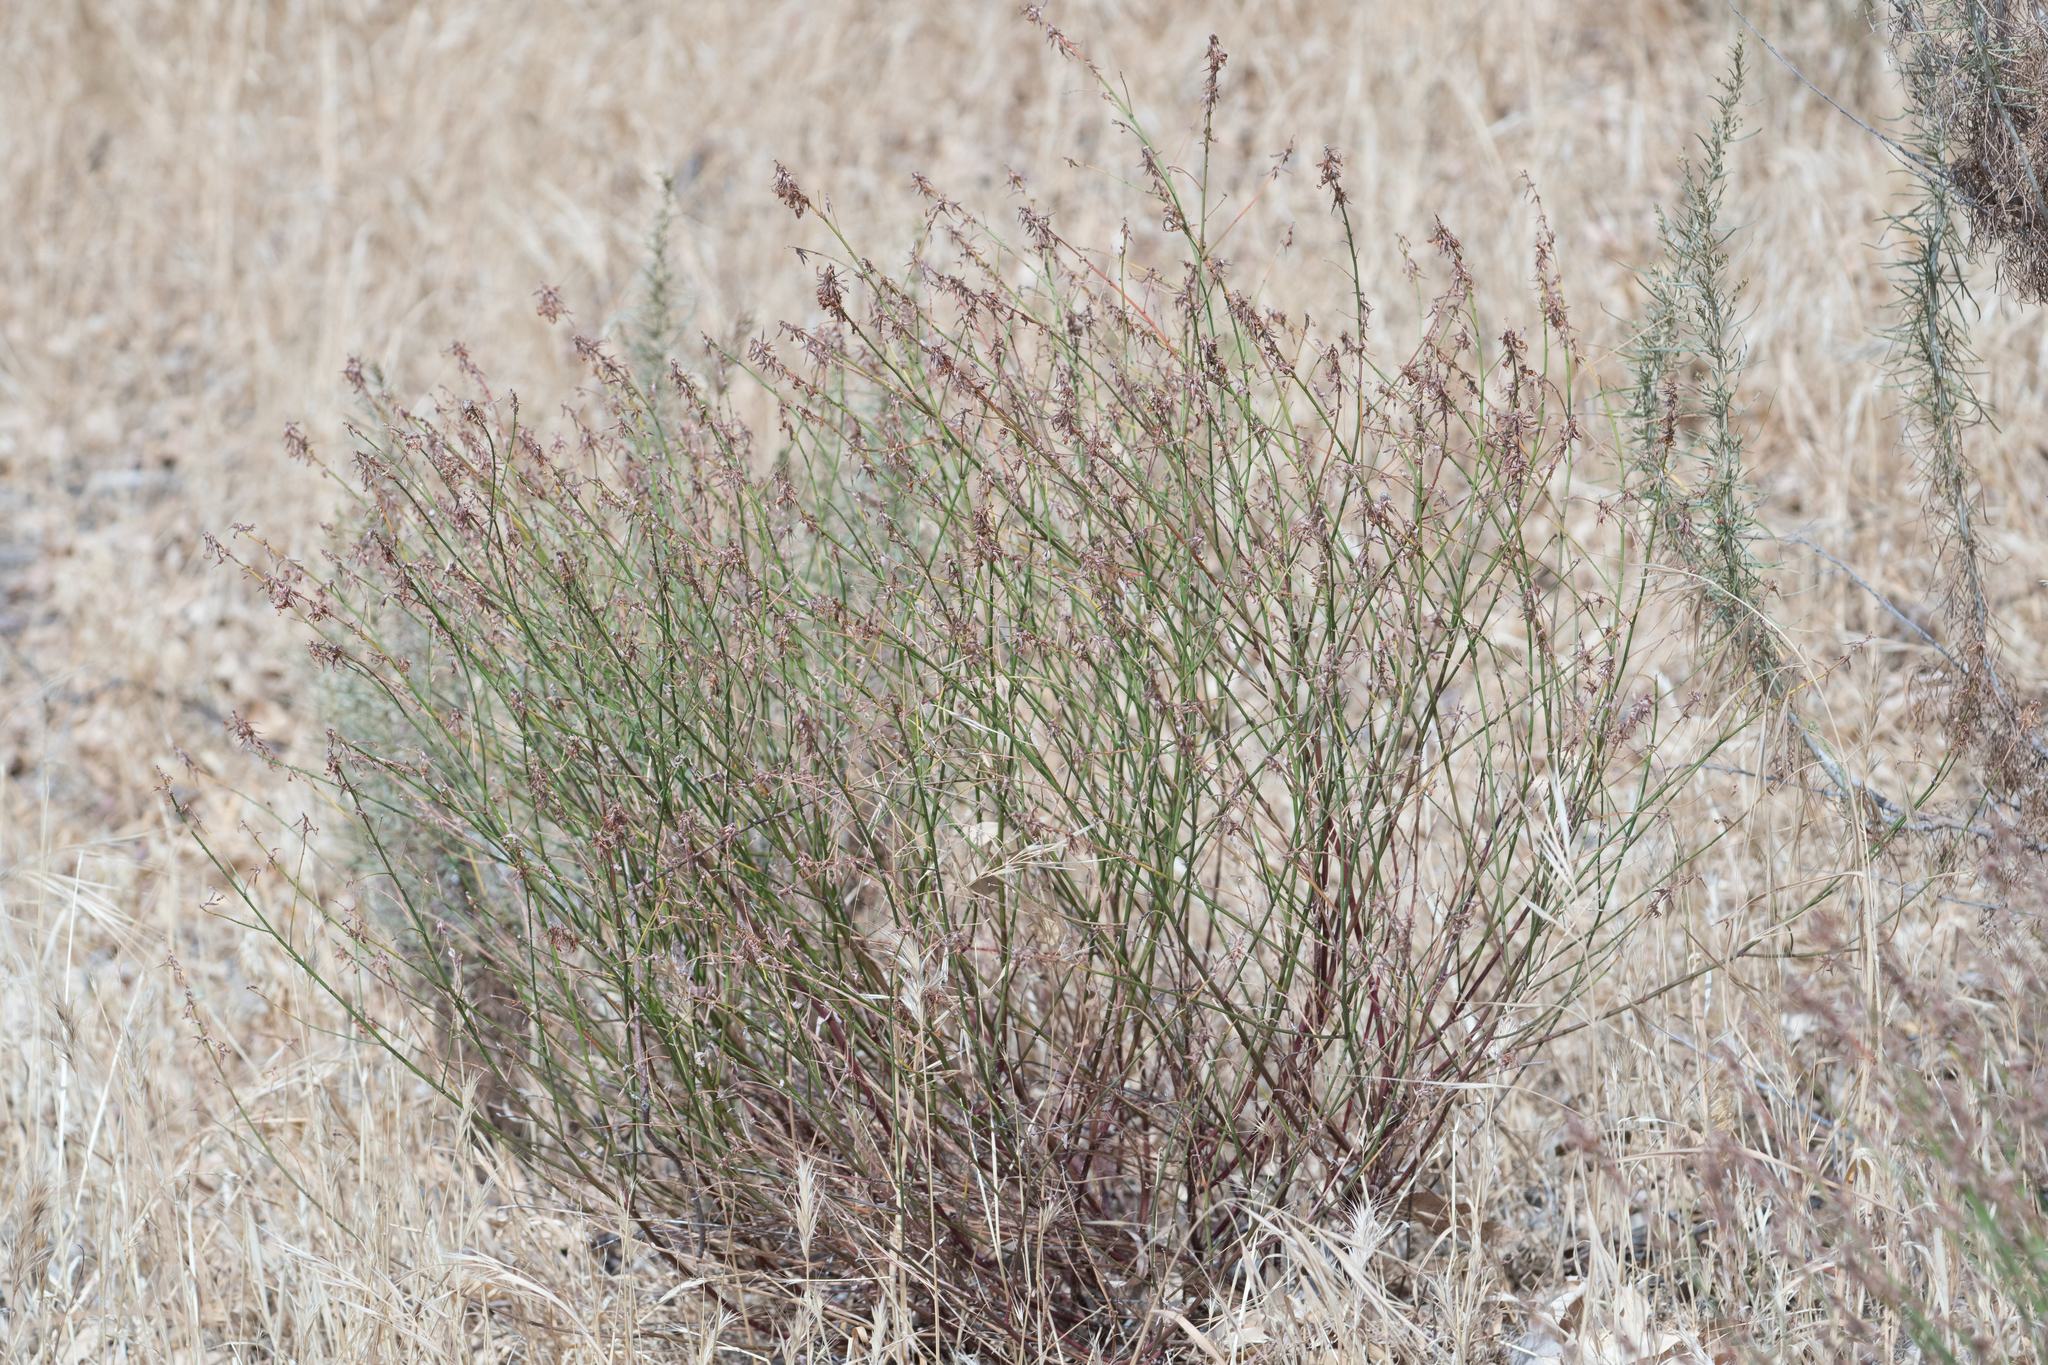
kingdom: Plantae
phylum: Tracheophyta
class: Magnoliopsida
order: Fabales
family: Fabaceae
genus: Acmispon
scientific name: Acmispon glaber
